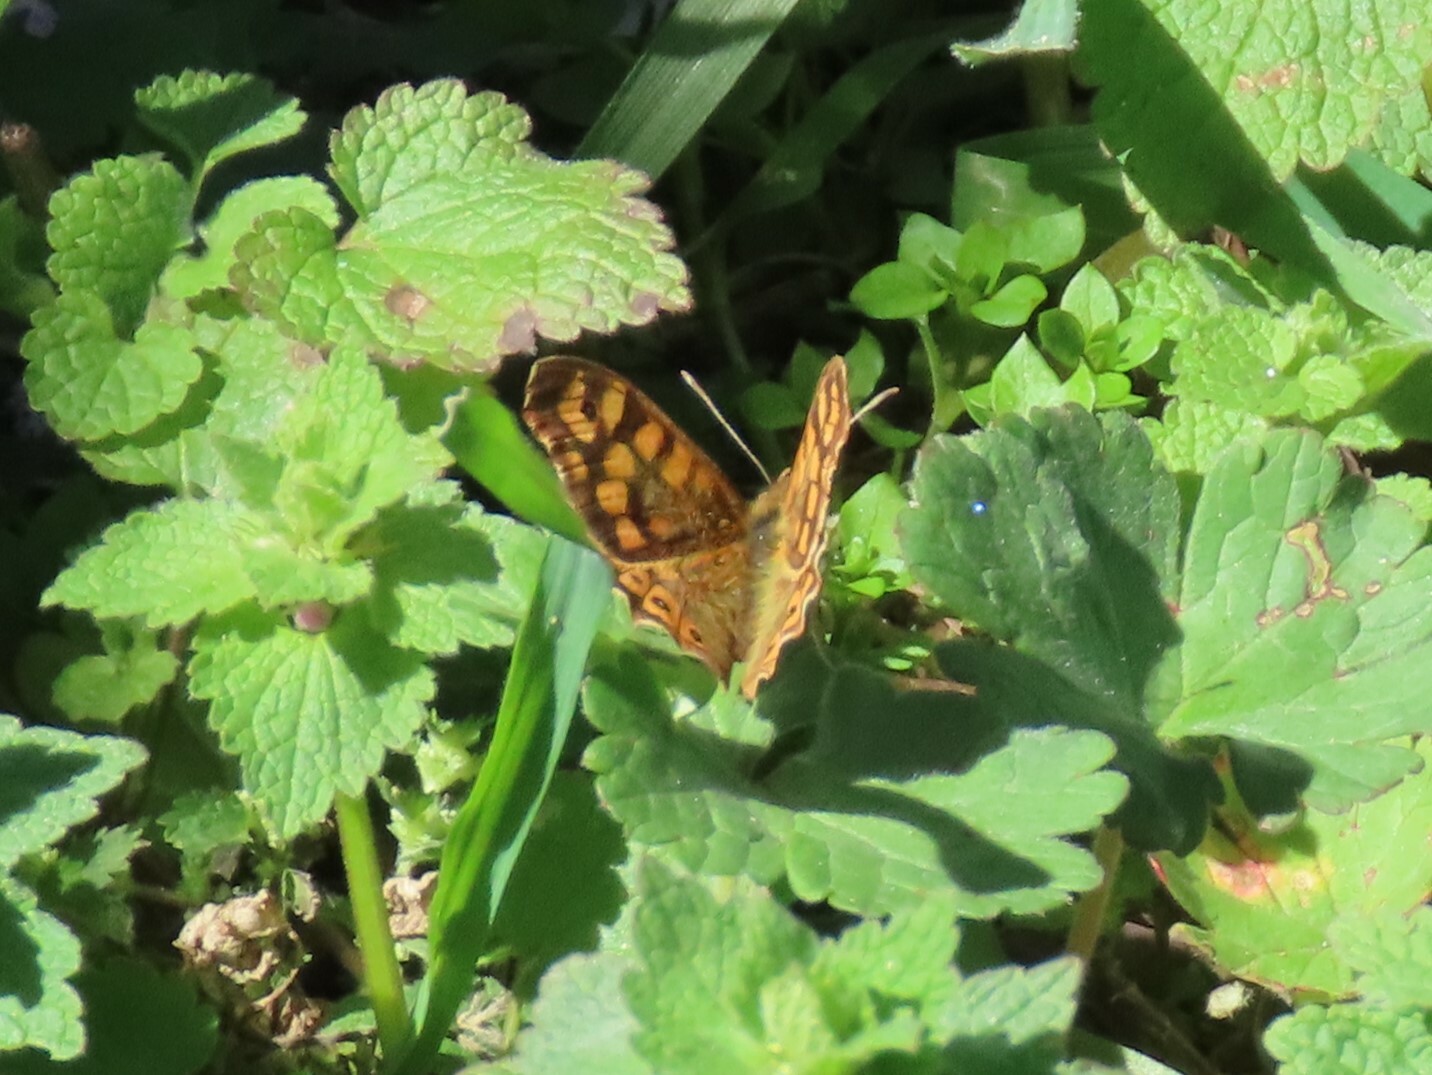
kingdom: Animalia
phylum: Arthropoda
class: Insecta
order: Lepidoptera
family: Nymphalidae
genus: Pararge
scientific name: Pararge aegeria
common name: Speckled wood
